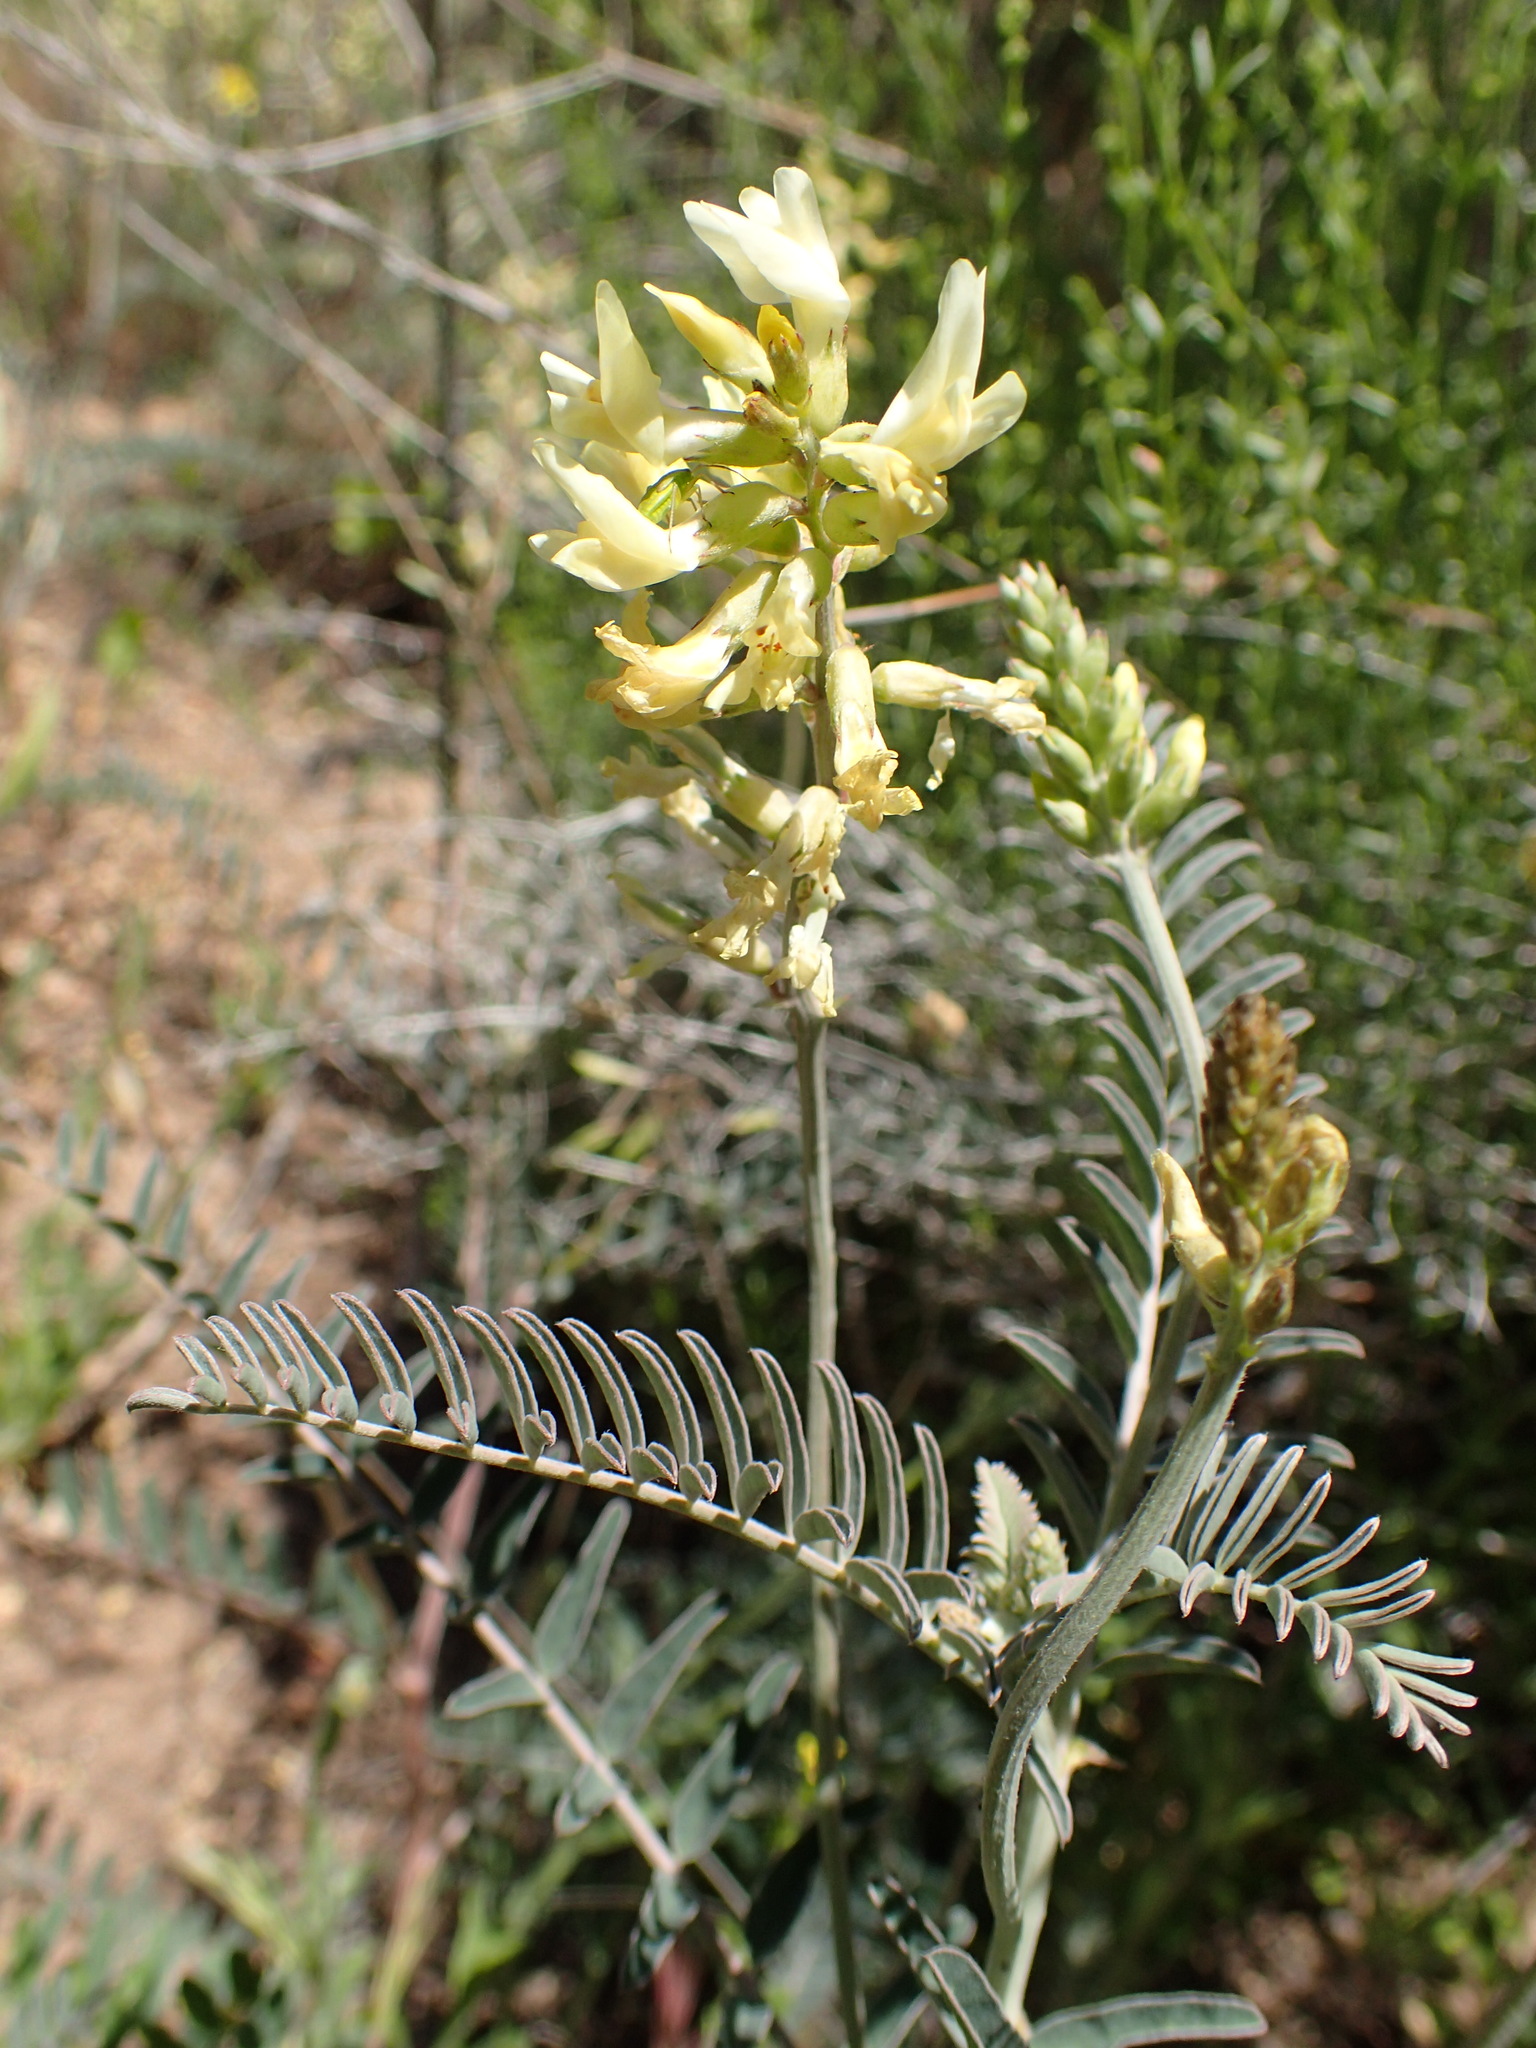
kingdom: Plantae
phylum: Tracheophyta
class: Magnoliopsida
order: Fabales
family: Fabaceae
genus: Astragalus
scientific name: Astragalus trichopodus
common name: Santa barbara milk-vetch
